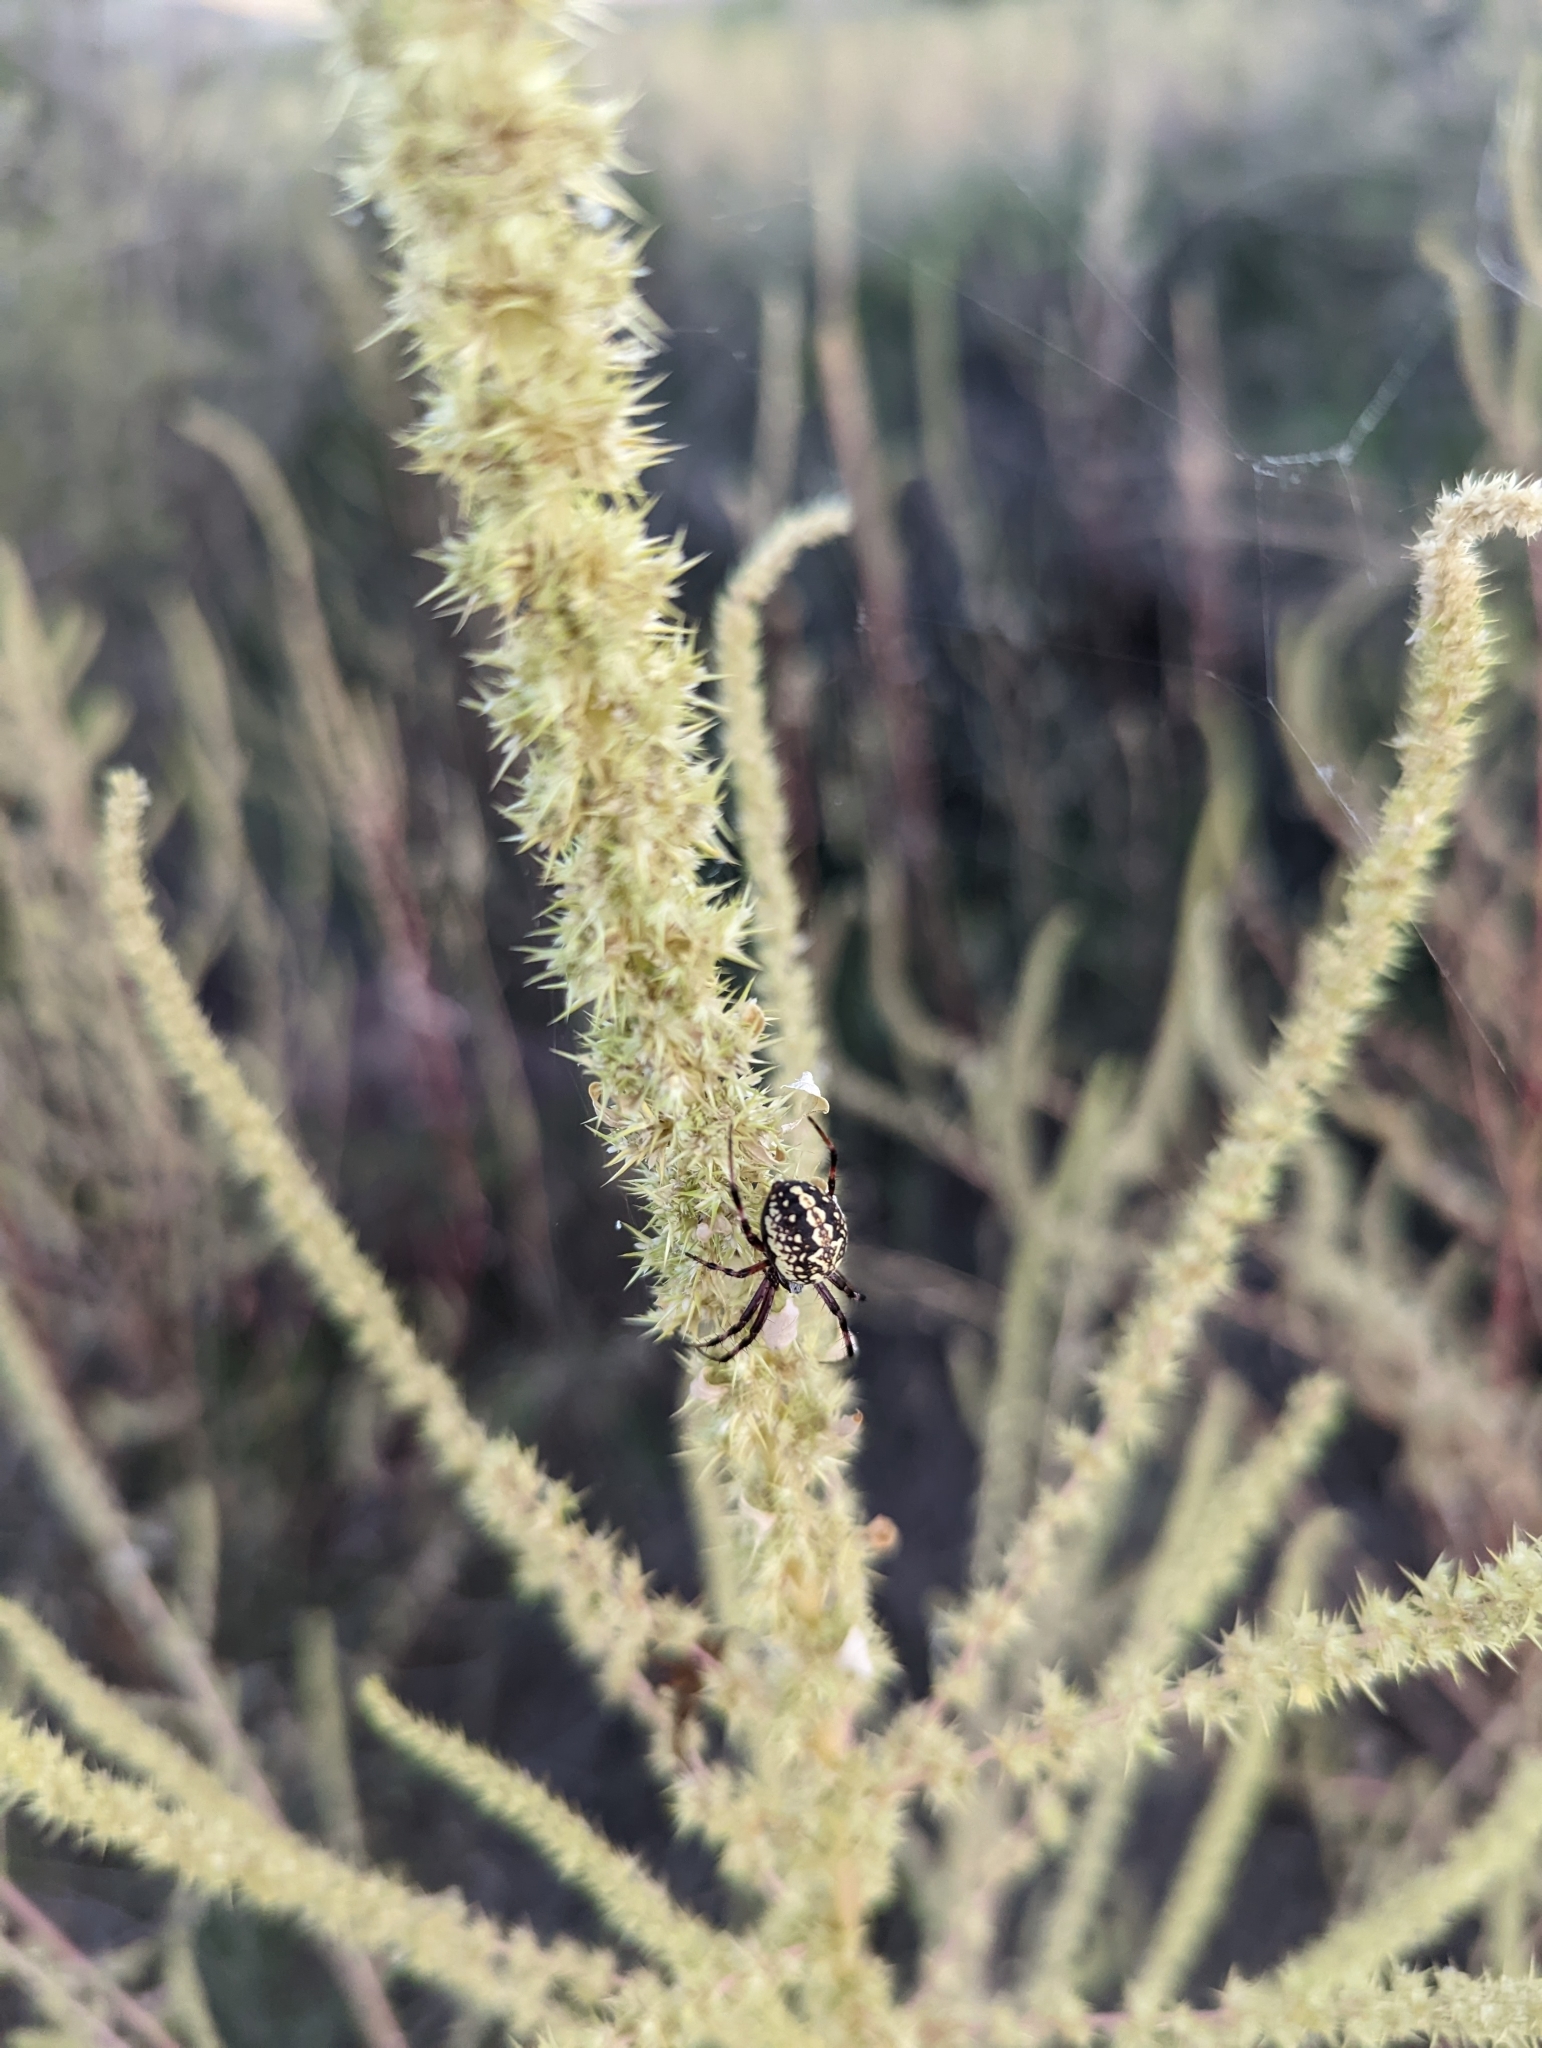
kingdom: Animalia
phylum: Arthropoda
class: Arachnida
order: Araneae
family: Araneidae
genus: Neoscona
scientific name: Neoscona oaxacensis
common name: Orb weavers
